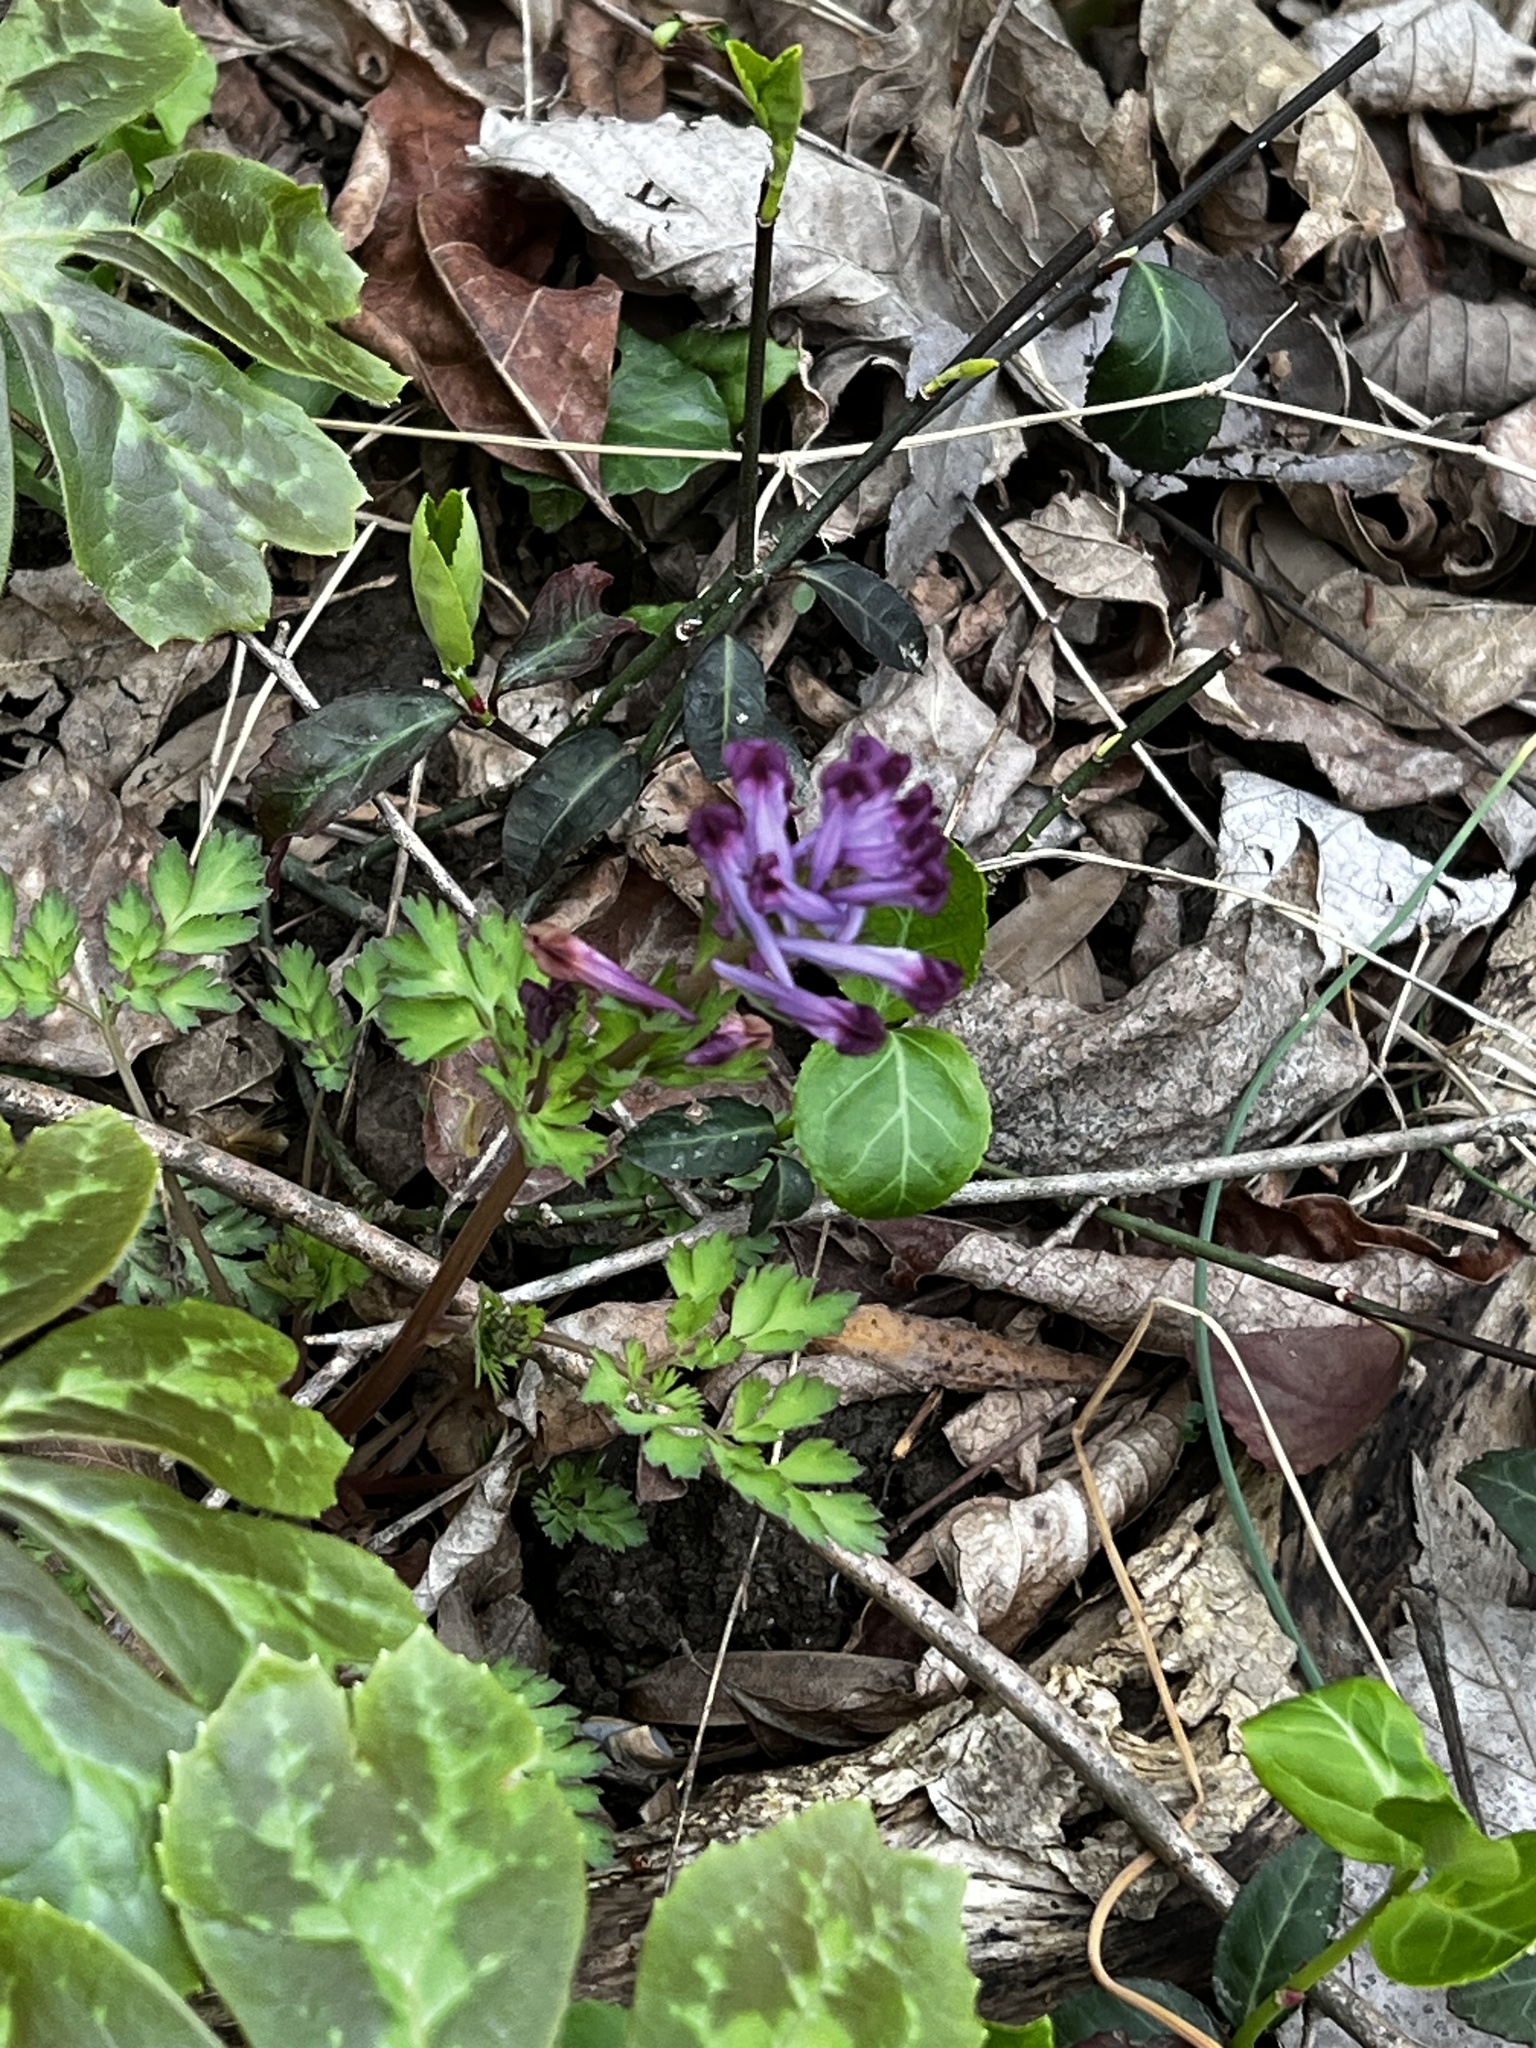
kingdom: Plantae
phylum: Tracheophyta
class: Magnoliopsida
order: Ranunculales
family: Papaveraceae
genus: Corydalis
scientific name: Corydalis incisa
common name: Incised fumewort
